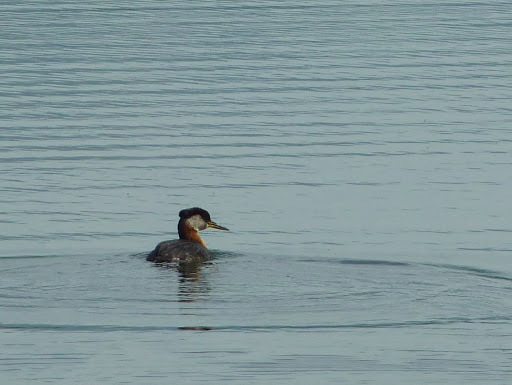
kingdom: Animalia
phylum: Chordata
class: Aves
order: Podicipediformes
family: Podicipedidae
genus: Podiceps
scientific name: Podiceps grisegena
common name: Red-necked grebe
